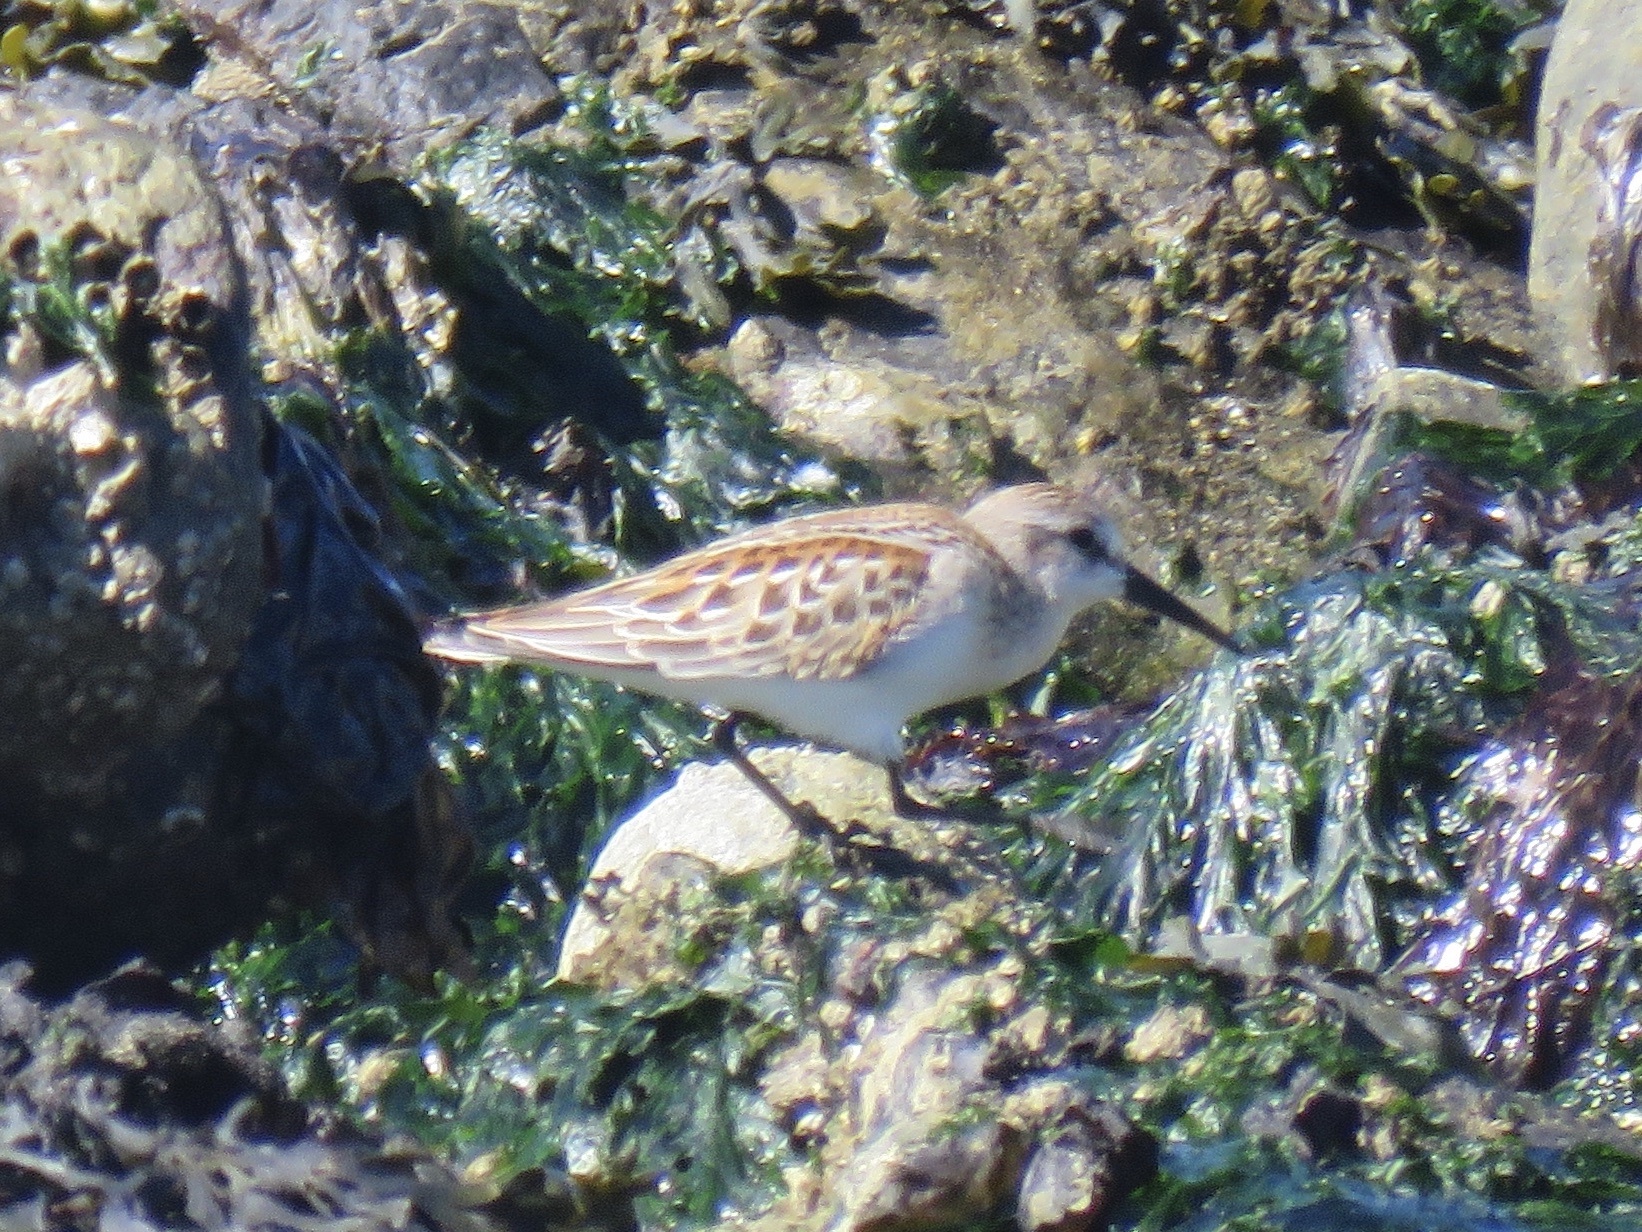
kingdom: Animalia
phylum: Chordata
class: Aves
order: Charadriiformes
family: Scolopacidae
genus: Calidris
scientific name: Calidris mauri
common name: Western sandpiper
